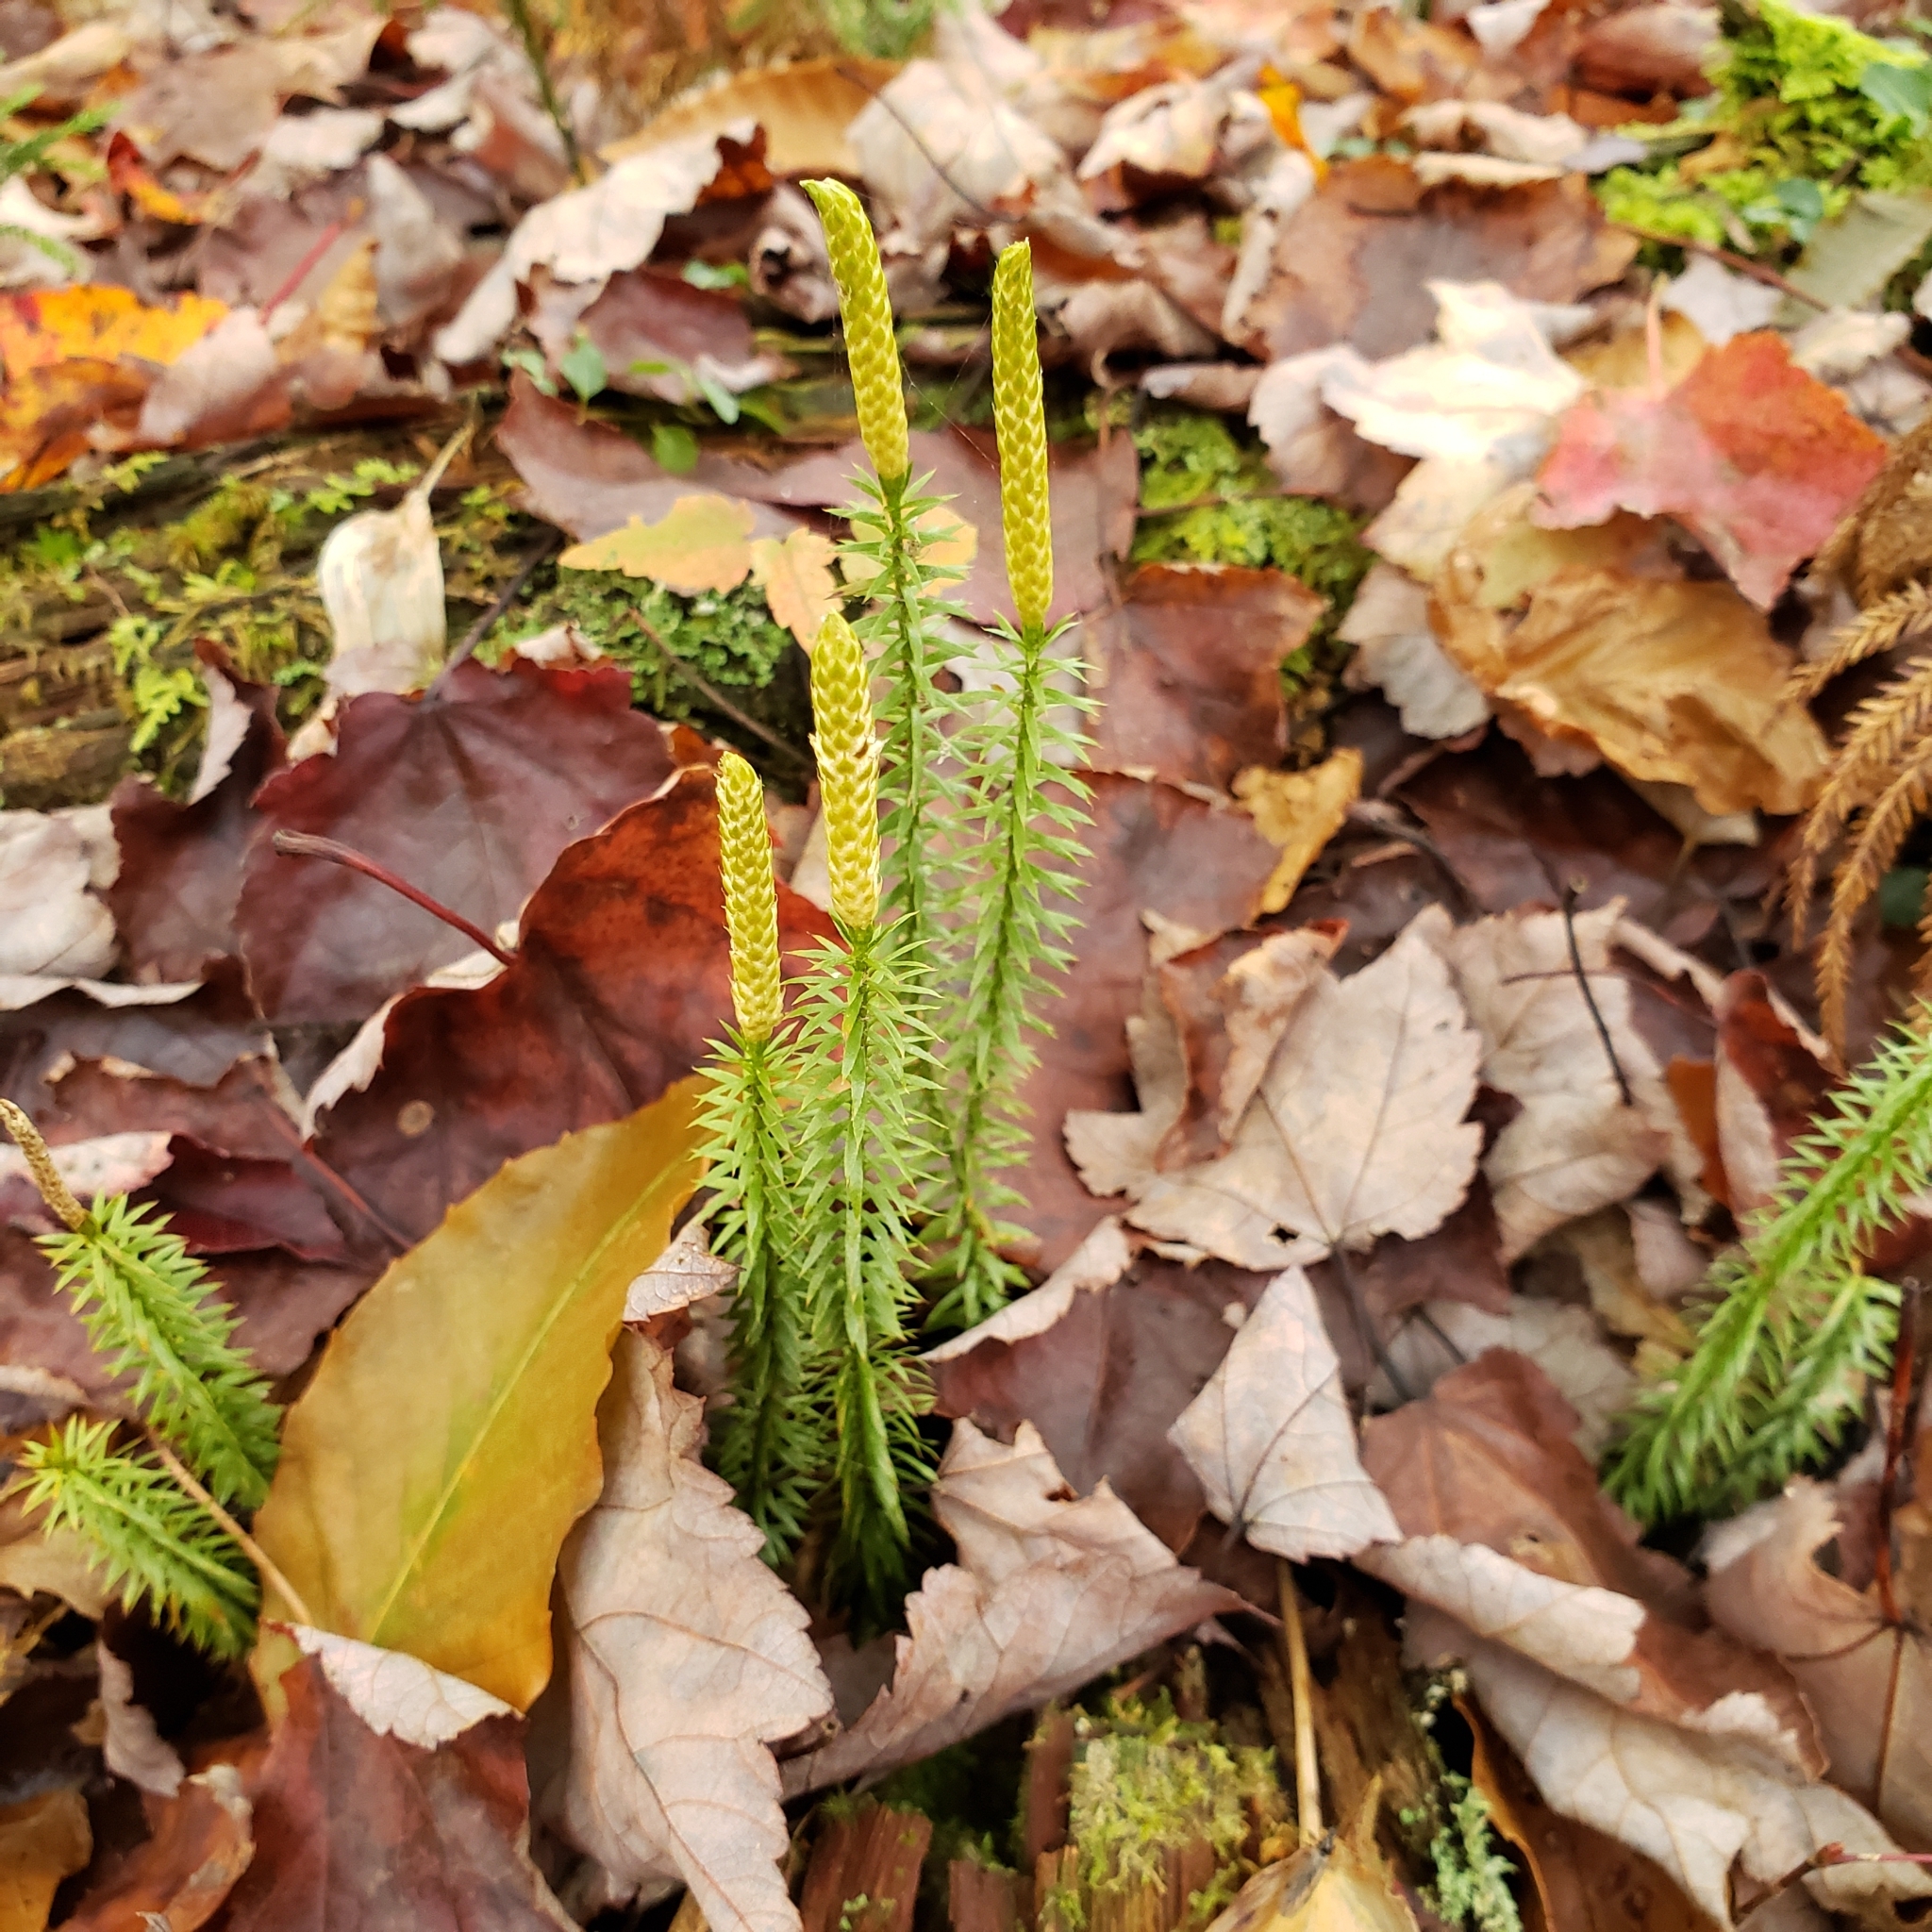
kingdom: Plantae
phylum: Tracheophyta
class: Lycopodiopsida
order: Lycopodiales
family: Lycopodiaceae
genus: Spinulum
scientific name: Spinulum annotinum
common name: Interrupted club-moss
